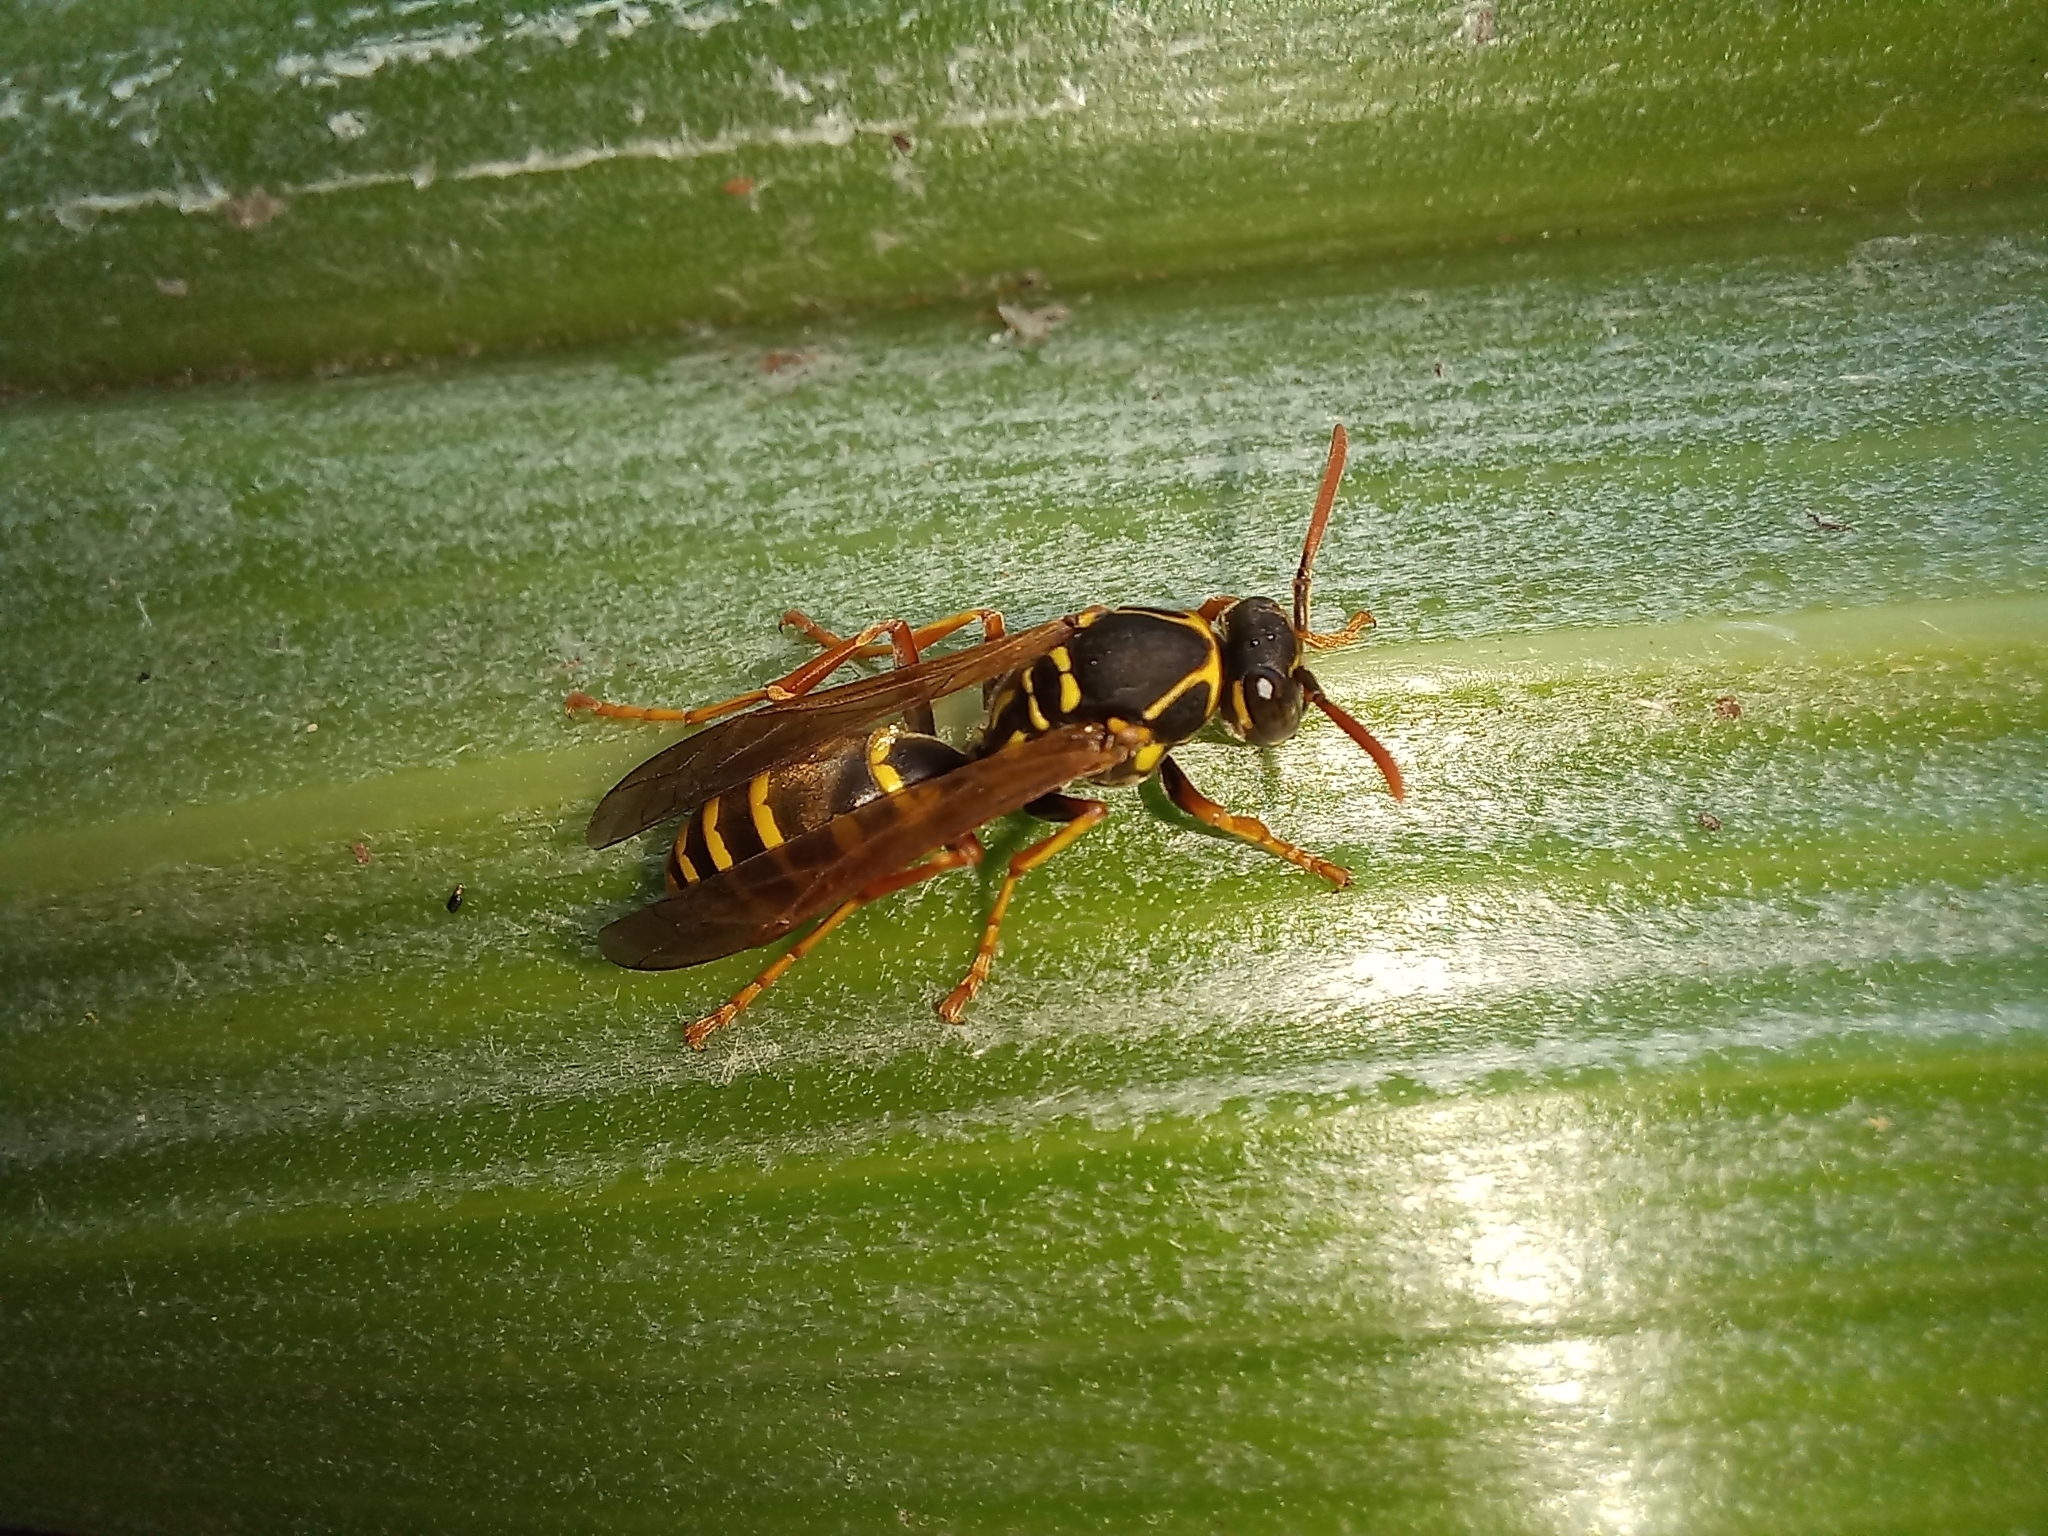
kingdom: Animalia
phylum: Arthropoda
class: Insecta
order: Hymenoptera
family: Eumenidae
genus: Polistes
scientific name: Polistes chinensis
